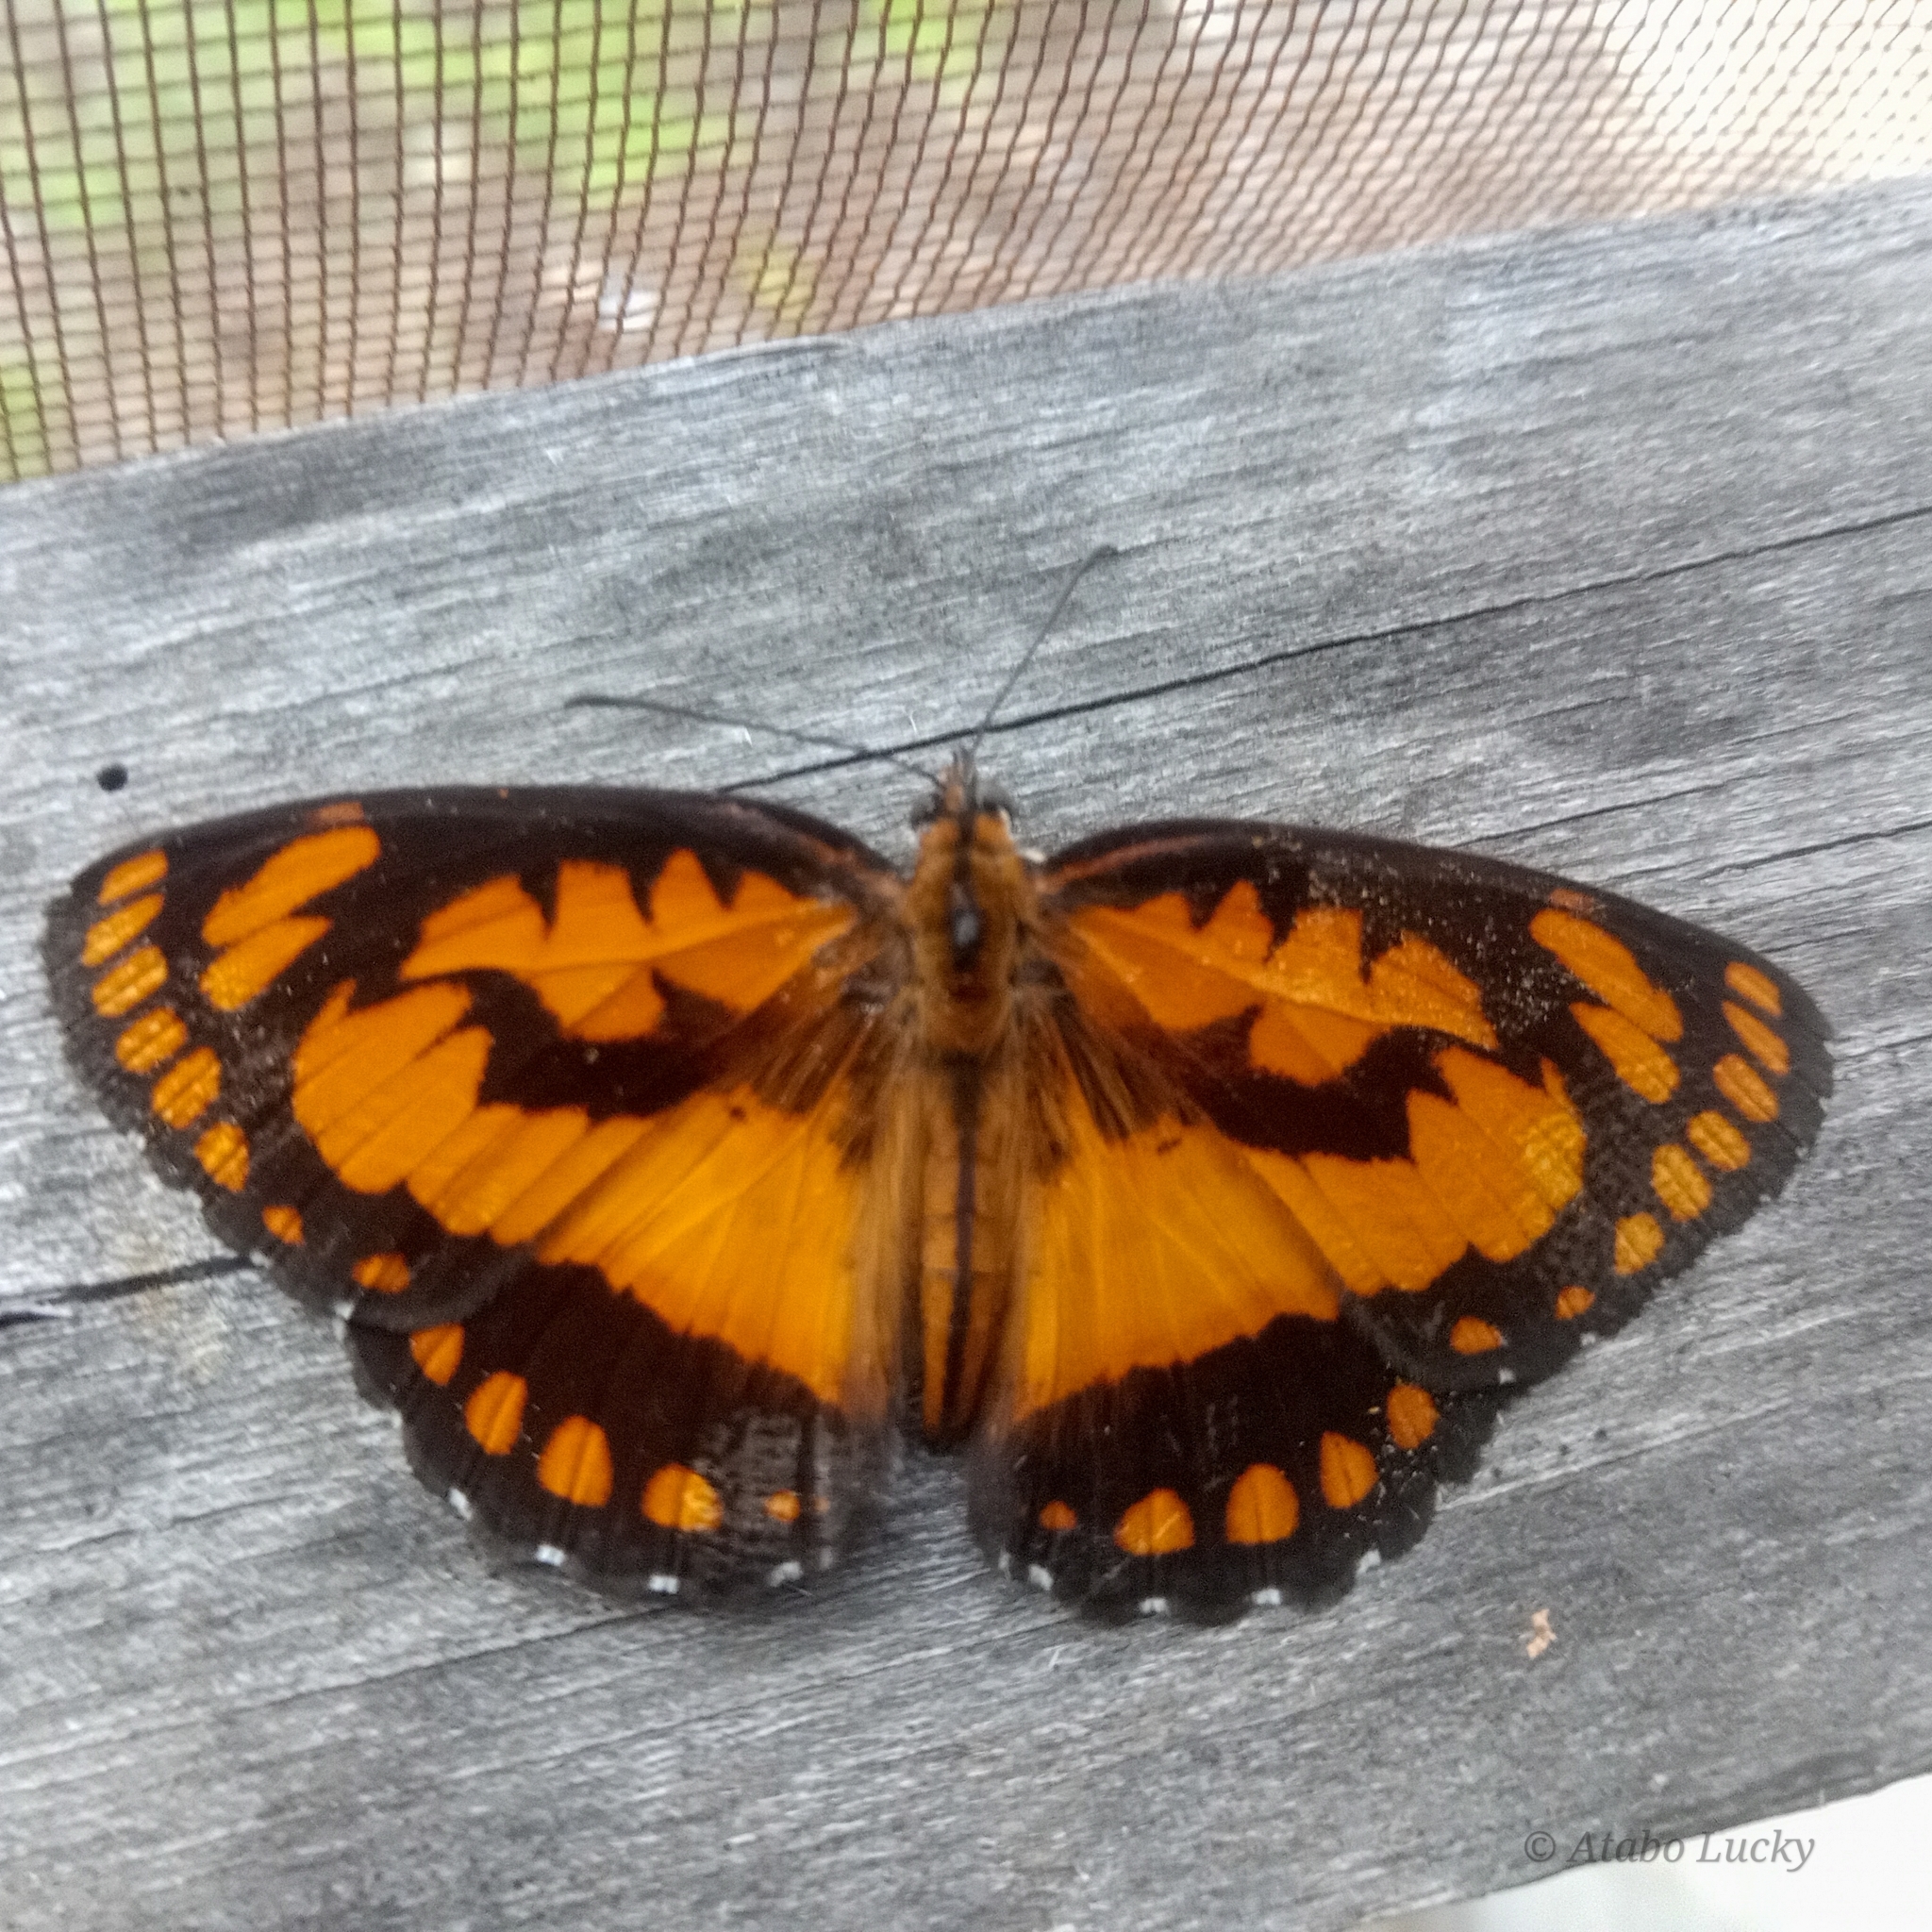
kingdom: Animalia
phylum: Arthropoda
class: Insecta
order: Lepidoptera
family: Nymphalidae
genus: Byblia
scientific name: Byblia anvatara
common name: African joker
